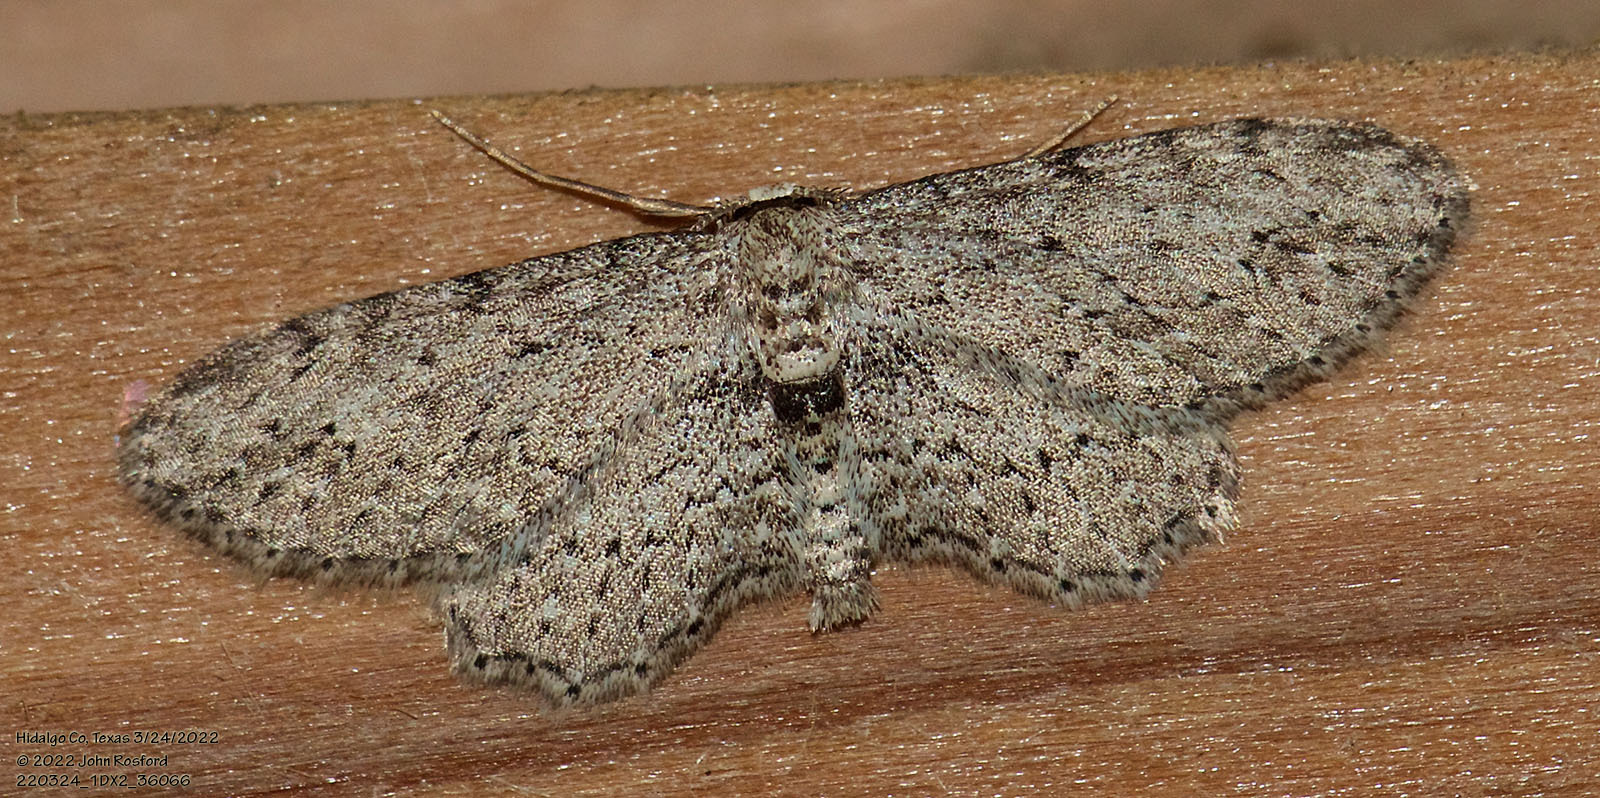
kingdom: Animalia
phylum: Arthropoda
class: Insecta
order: Lepidoptera
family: Geometridae
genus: Pimaphera
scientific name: Pimaphera sparsaria
